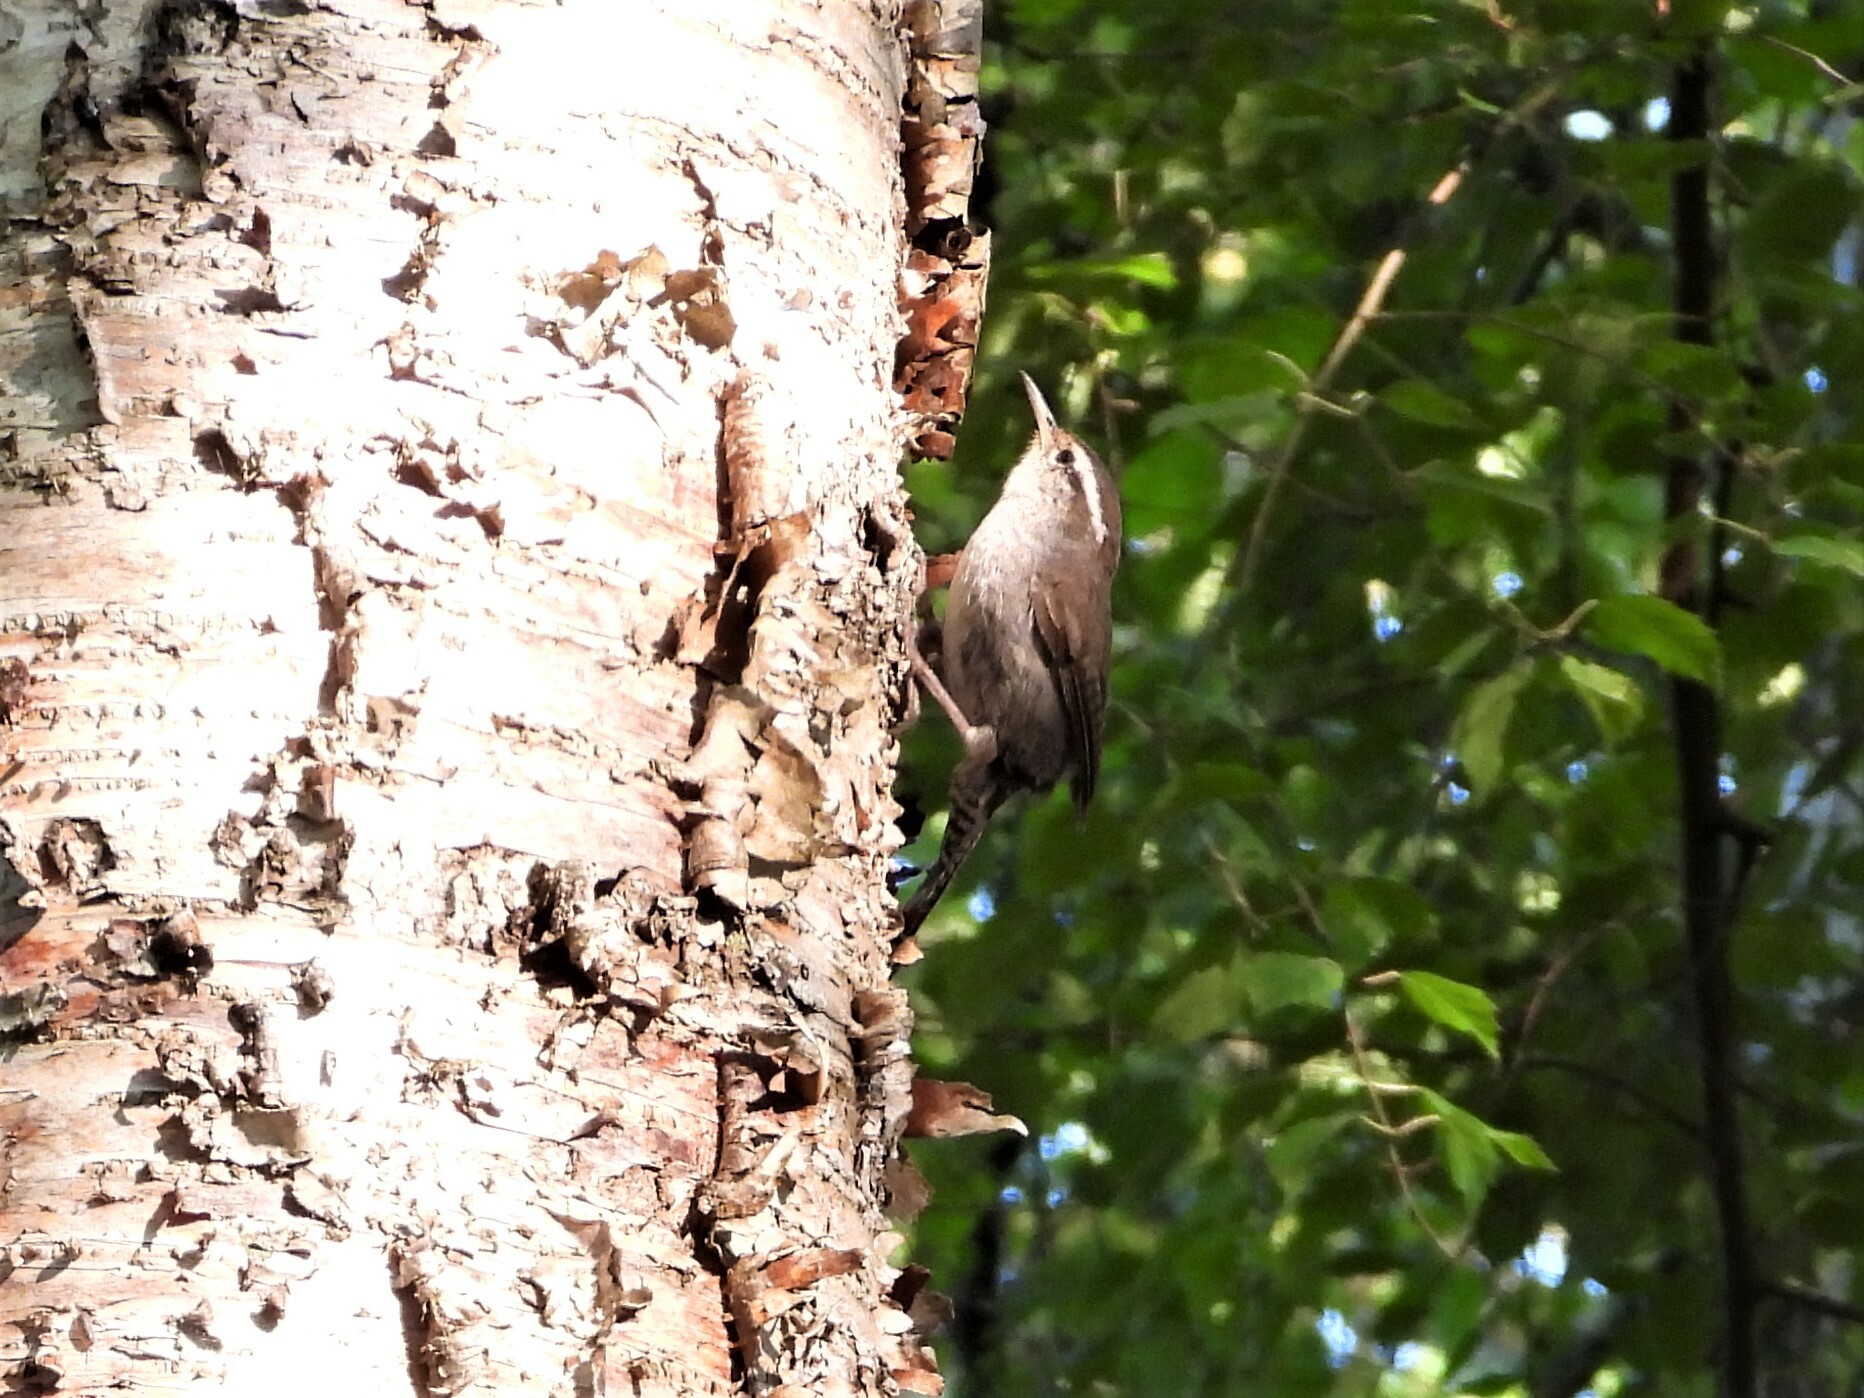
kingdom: Animalia
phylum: Chordata
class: Aves
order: Passeriformes
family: Troglodytidae
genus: Thryomanes
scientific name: Thryomanes bewickii
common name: Bewick's wren
